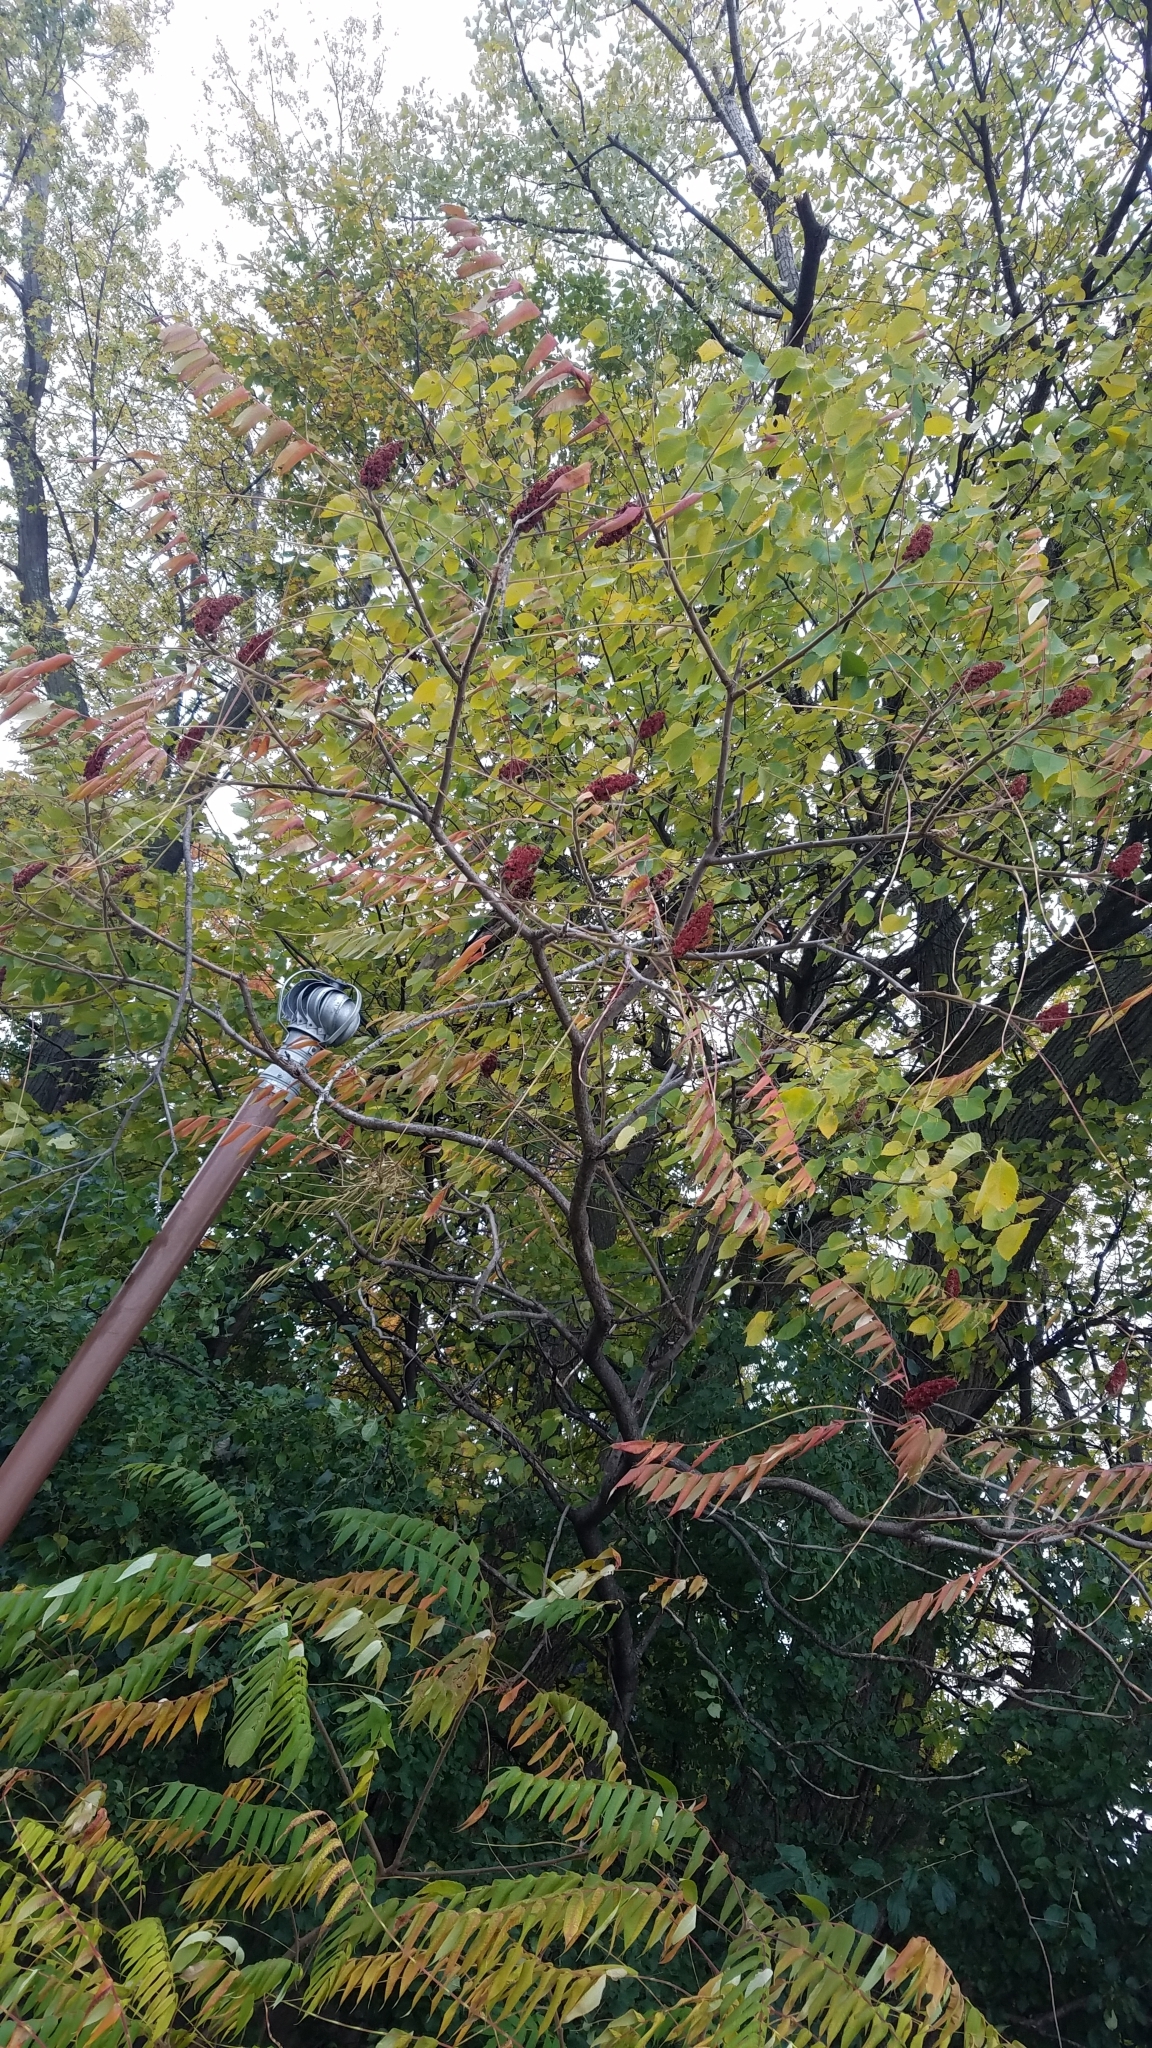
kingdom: Plantae
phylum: Tracheophyta
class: Magnoliopsida
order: Sapindales
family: Anacardiaceae
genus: Rhus
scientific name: Rhus typhina
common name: Staghorn sumac
